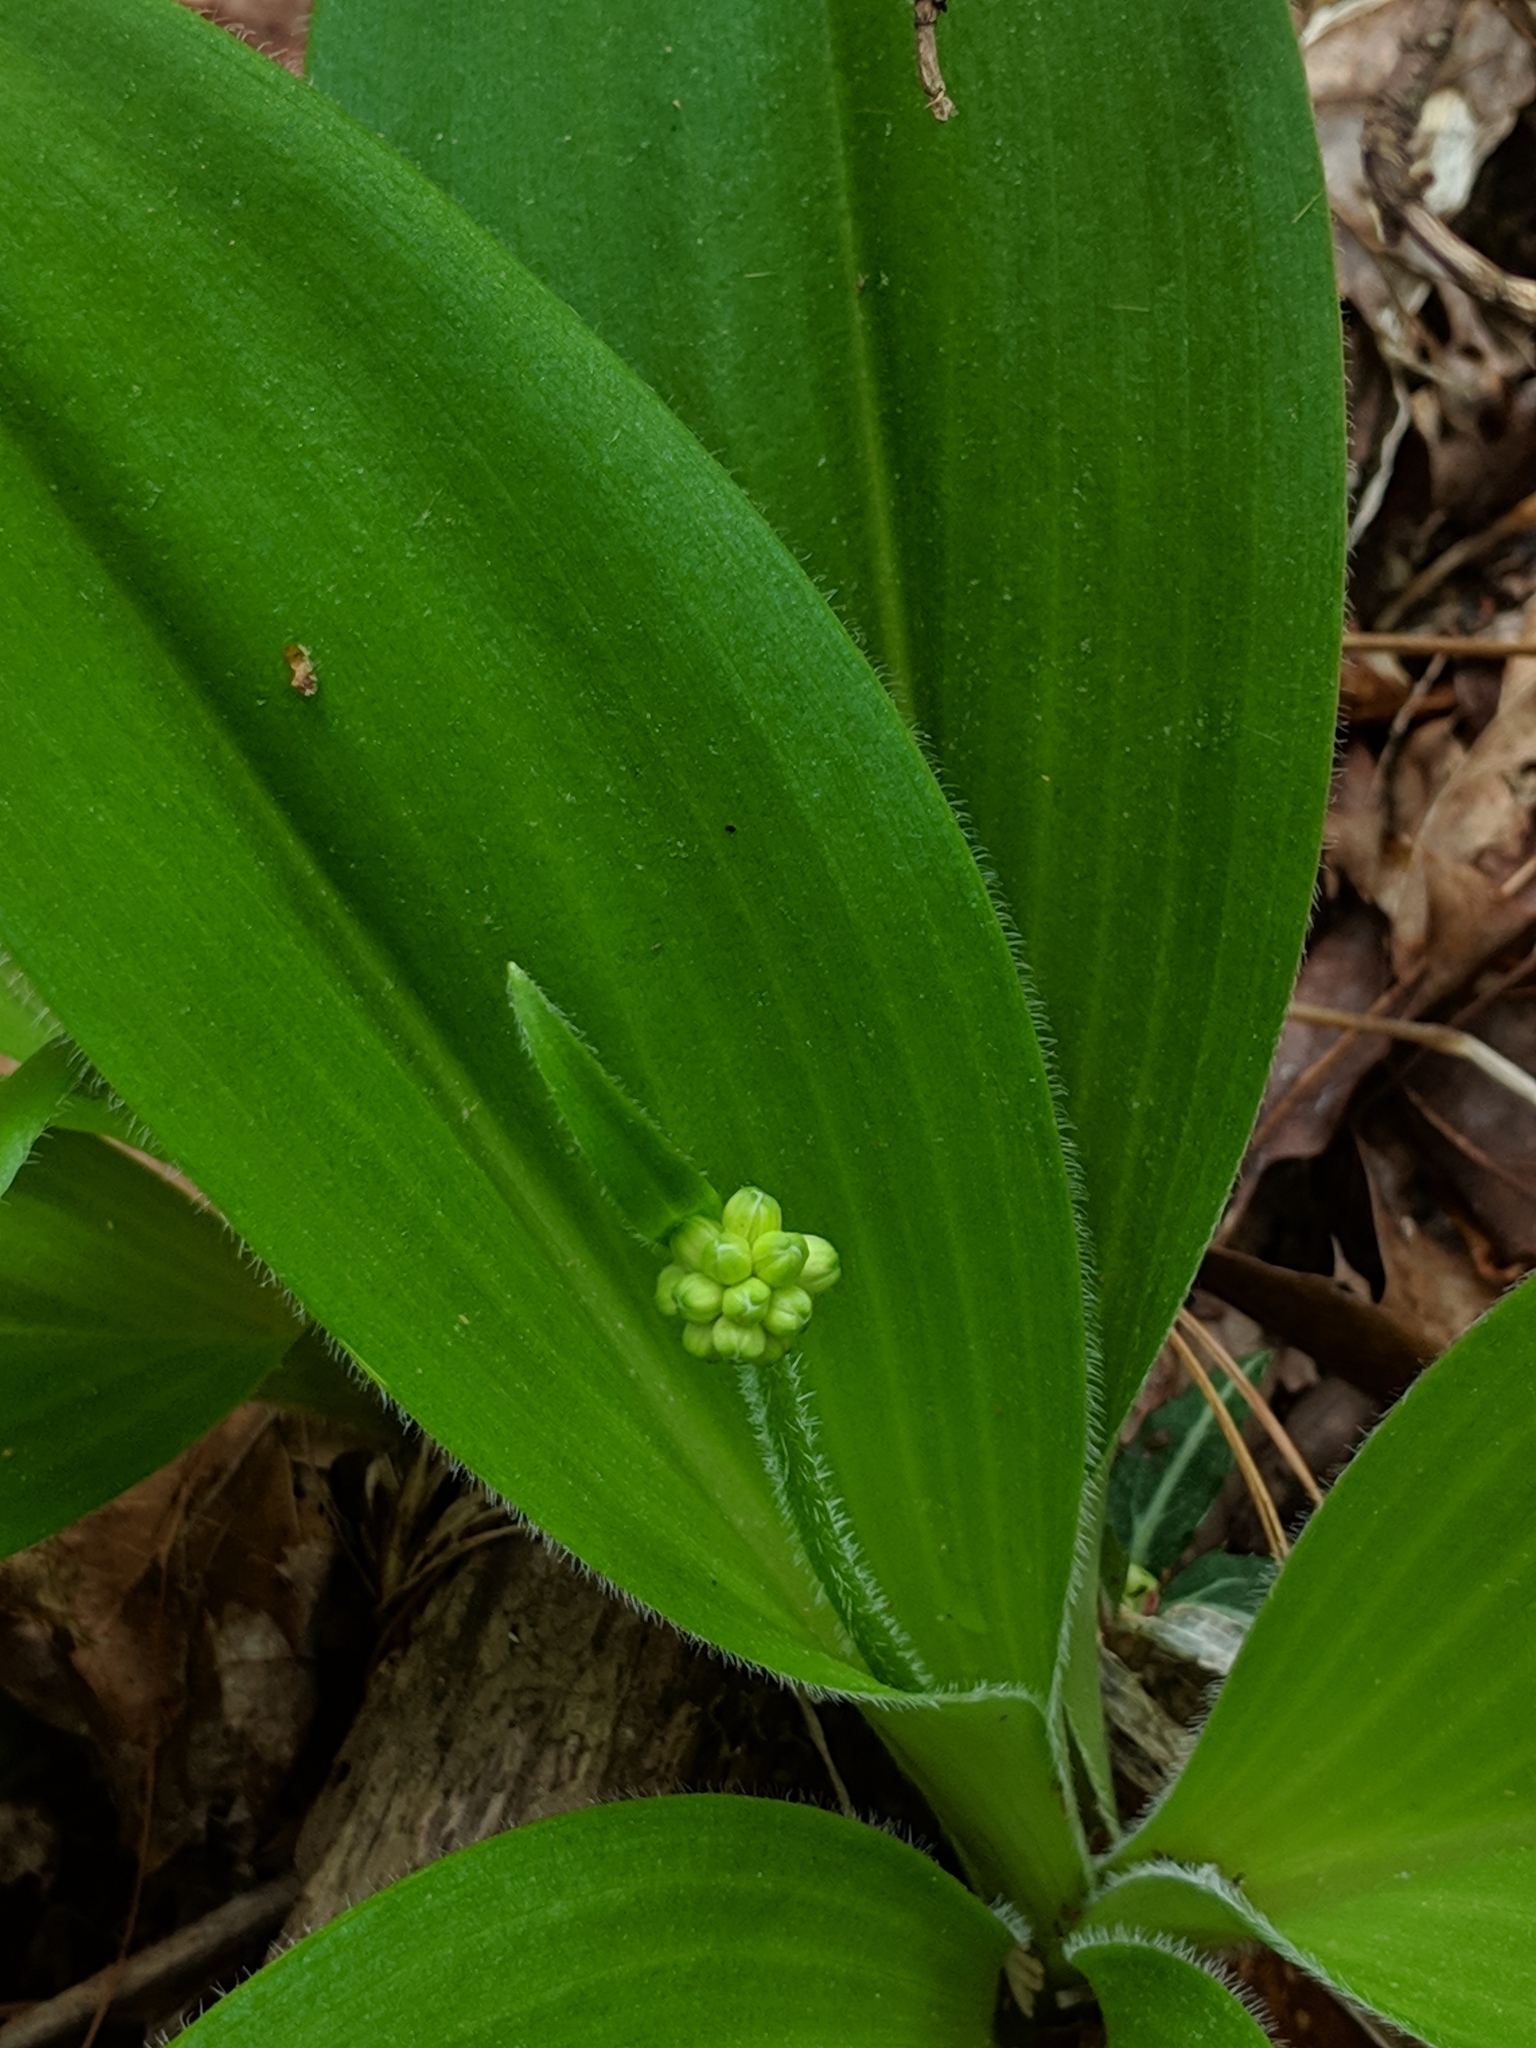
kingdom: Plantae
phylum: Tracheophyta
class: Liliopsida
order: Liliales
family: Liliaceae
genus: Clintonia
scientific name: Clintonia umbellulata
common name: Speckle wood-lily
